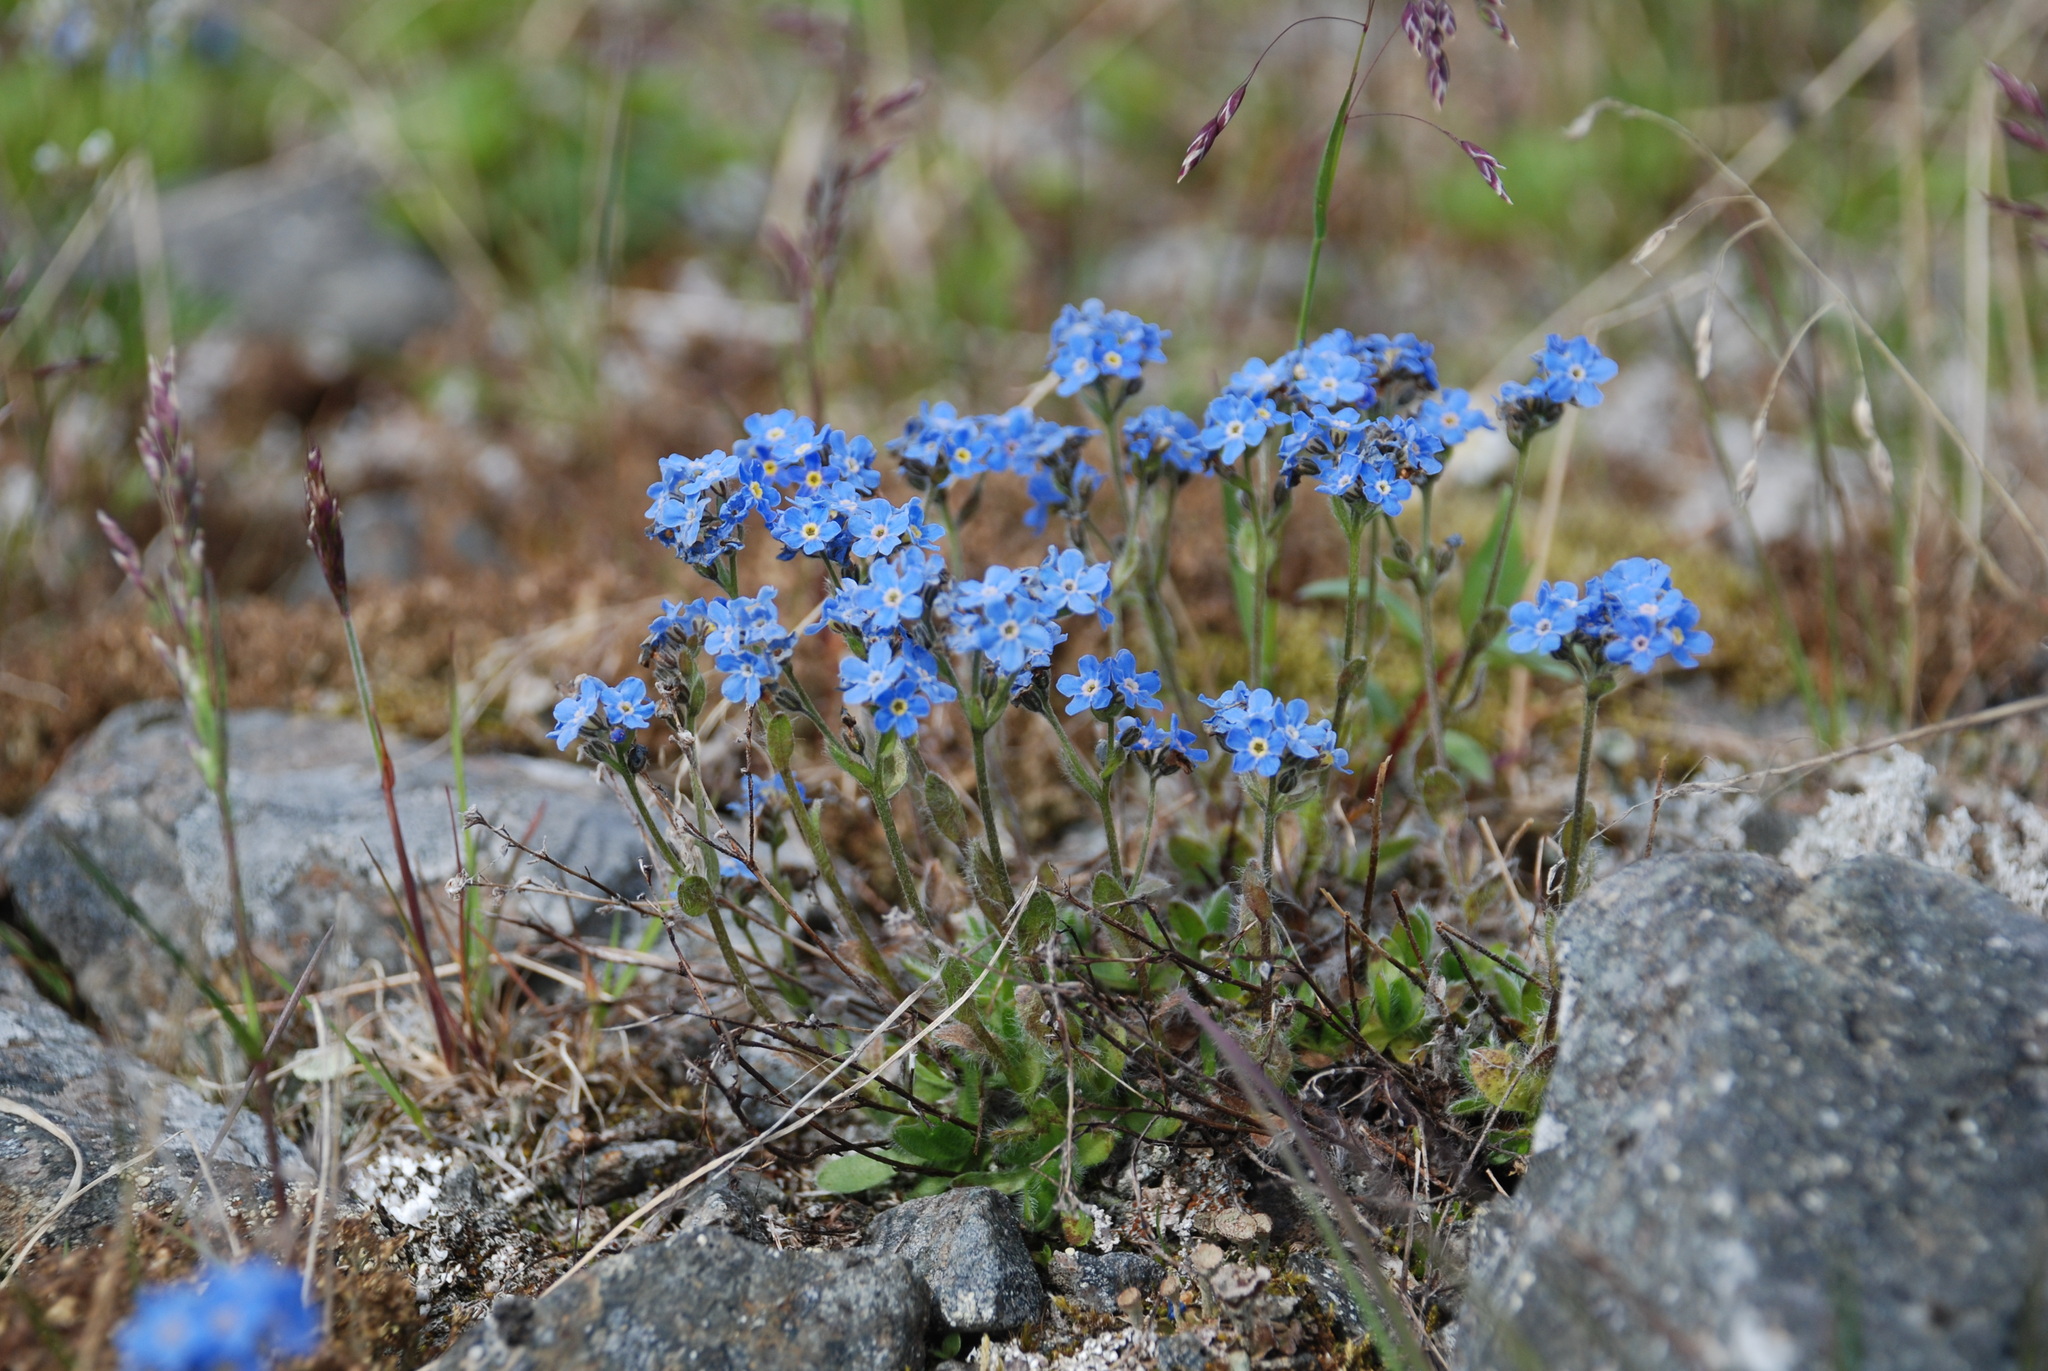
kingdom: Plantae
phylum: Tracheophyta
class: Magnoliopsida
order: Boraginales
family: Boraginaceae
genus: Eritrichium
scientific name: Eritrichium villosum
